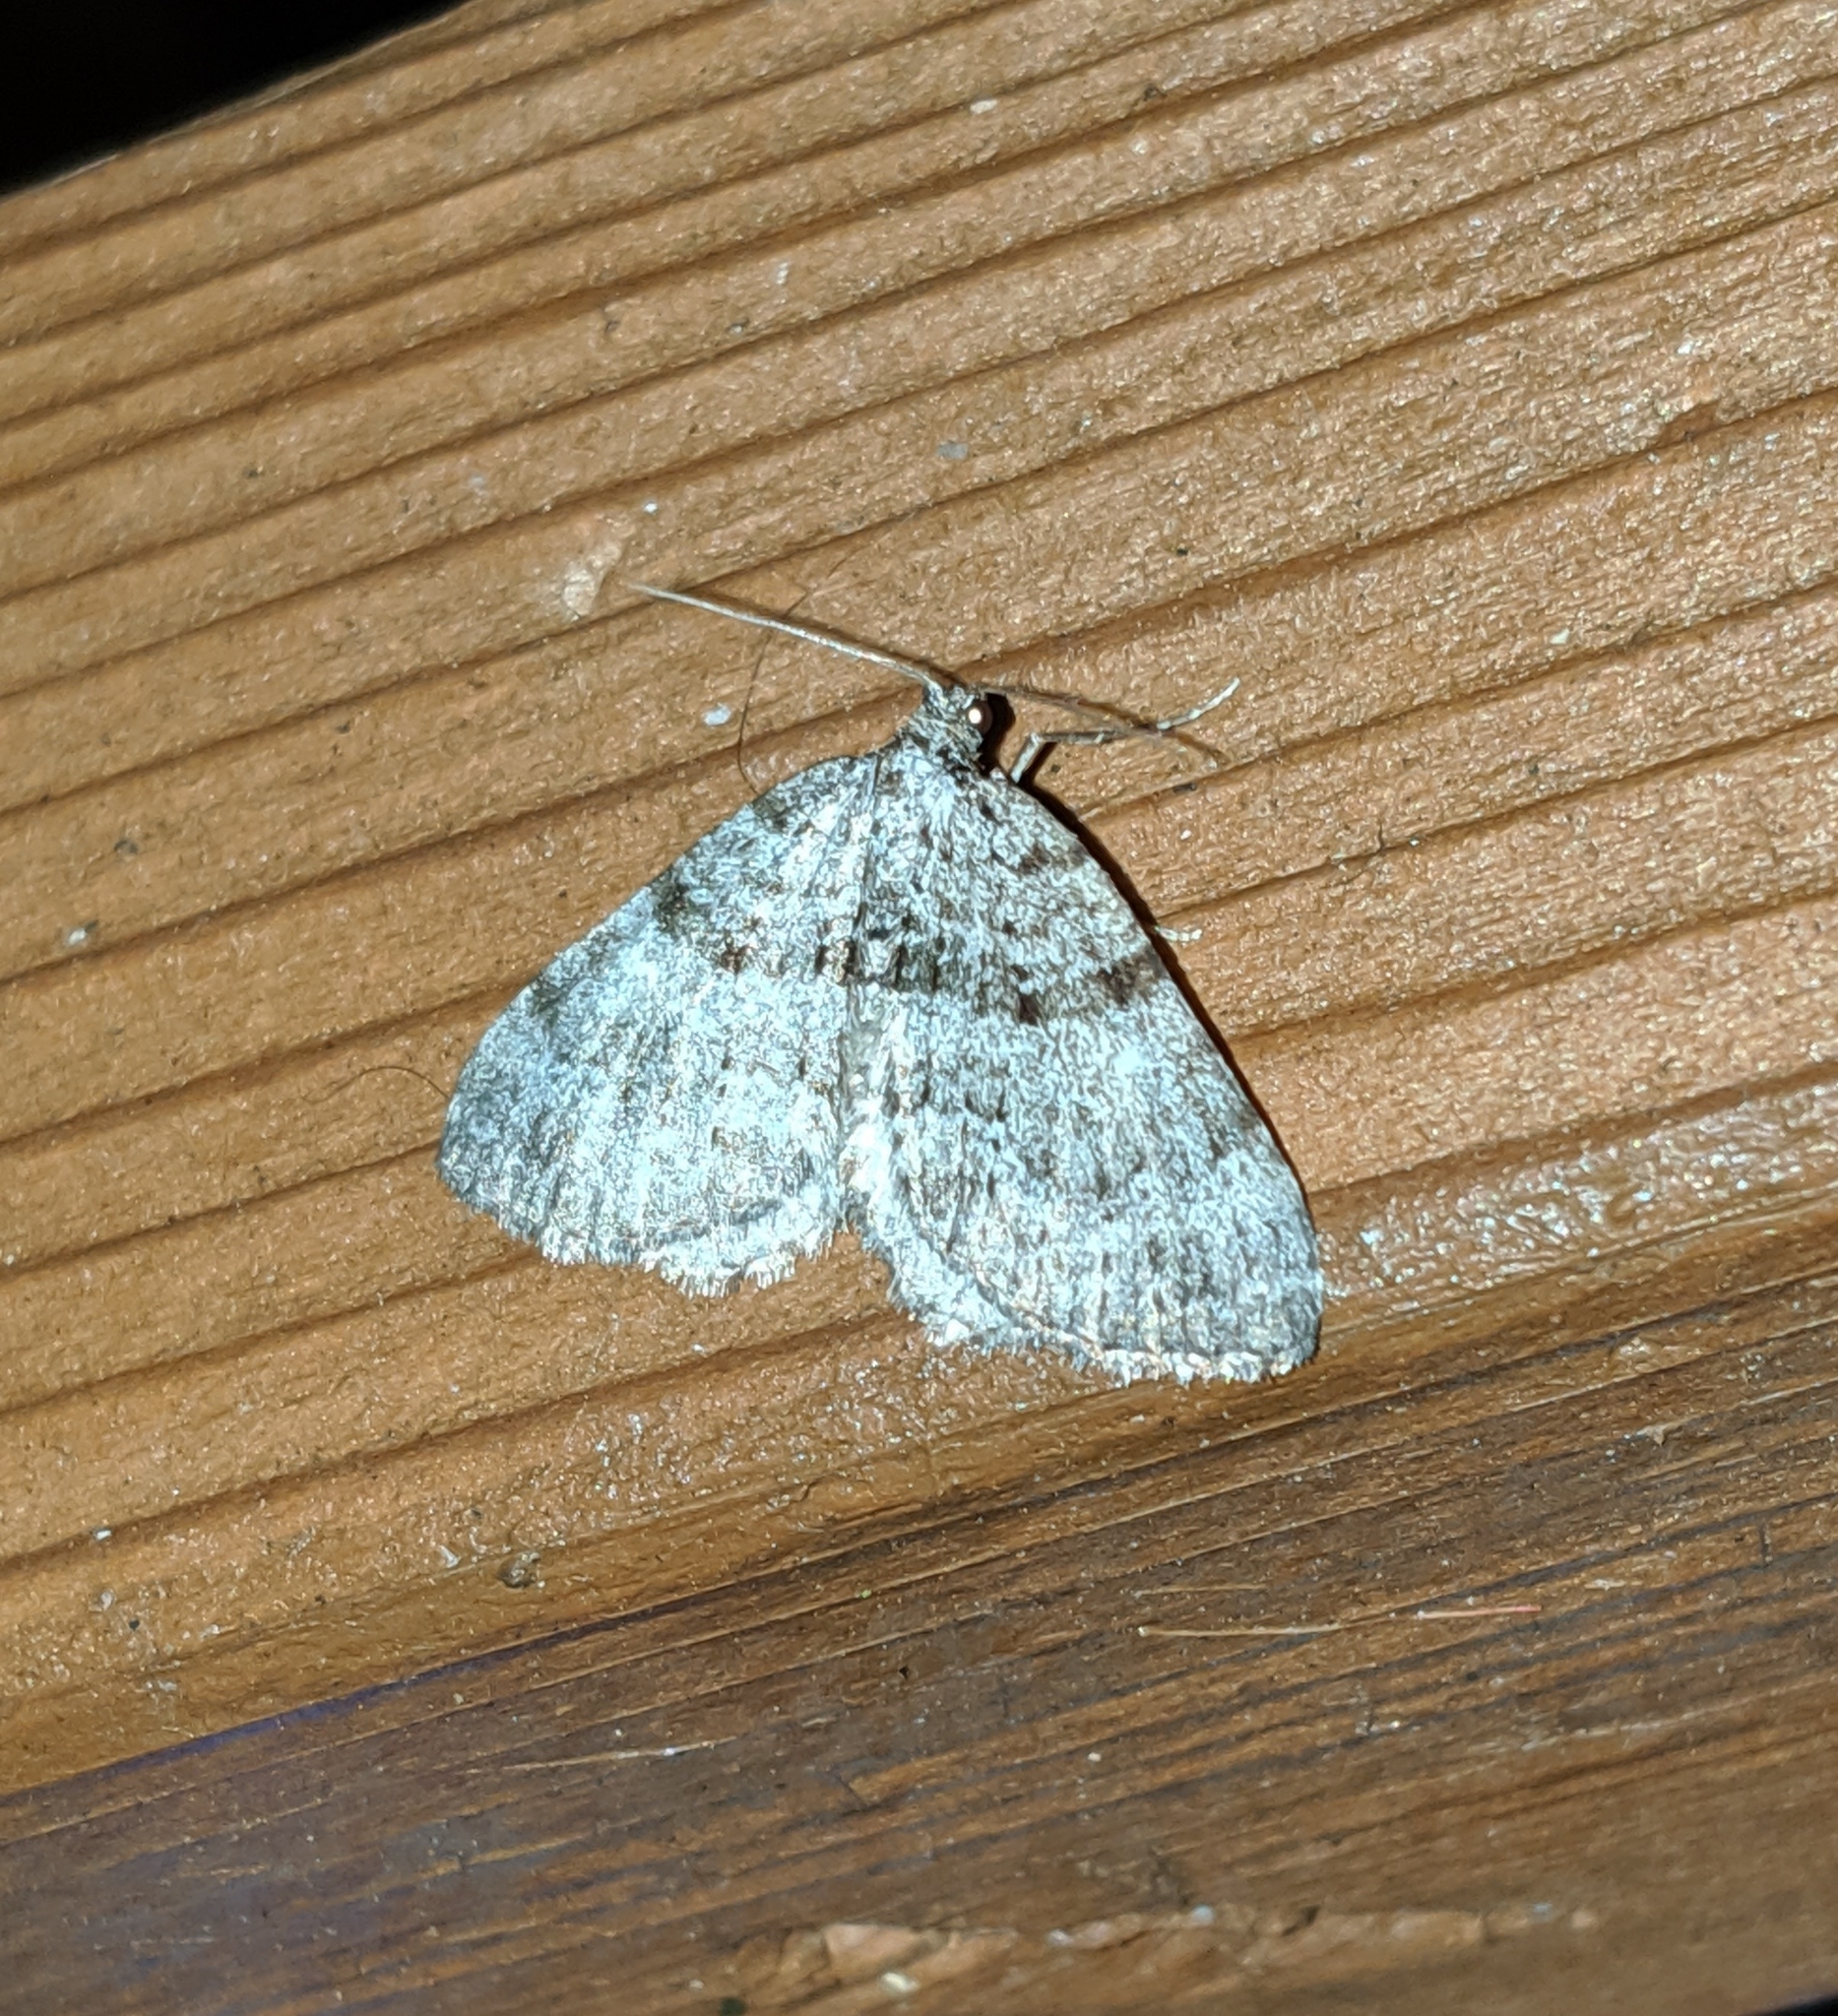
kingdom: Animalia
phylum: Arthropoda
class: Insecta
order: Lepidoptera
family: Geometridae
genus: Perizoma
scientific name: Perizoma curvilinea
